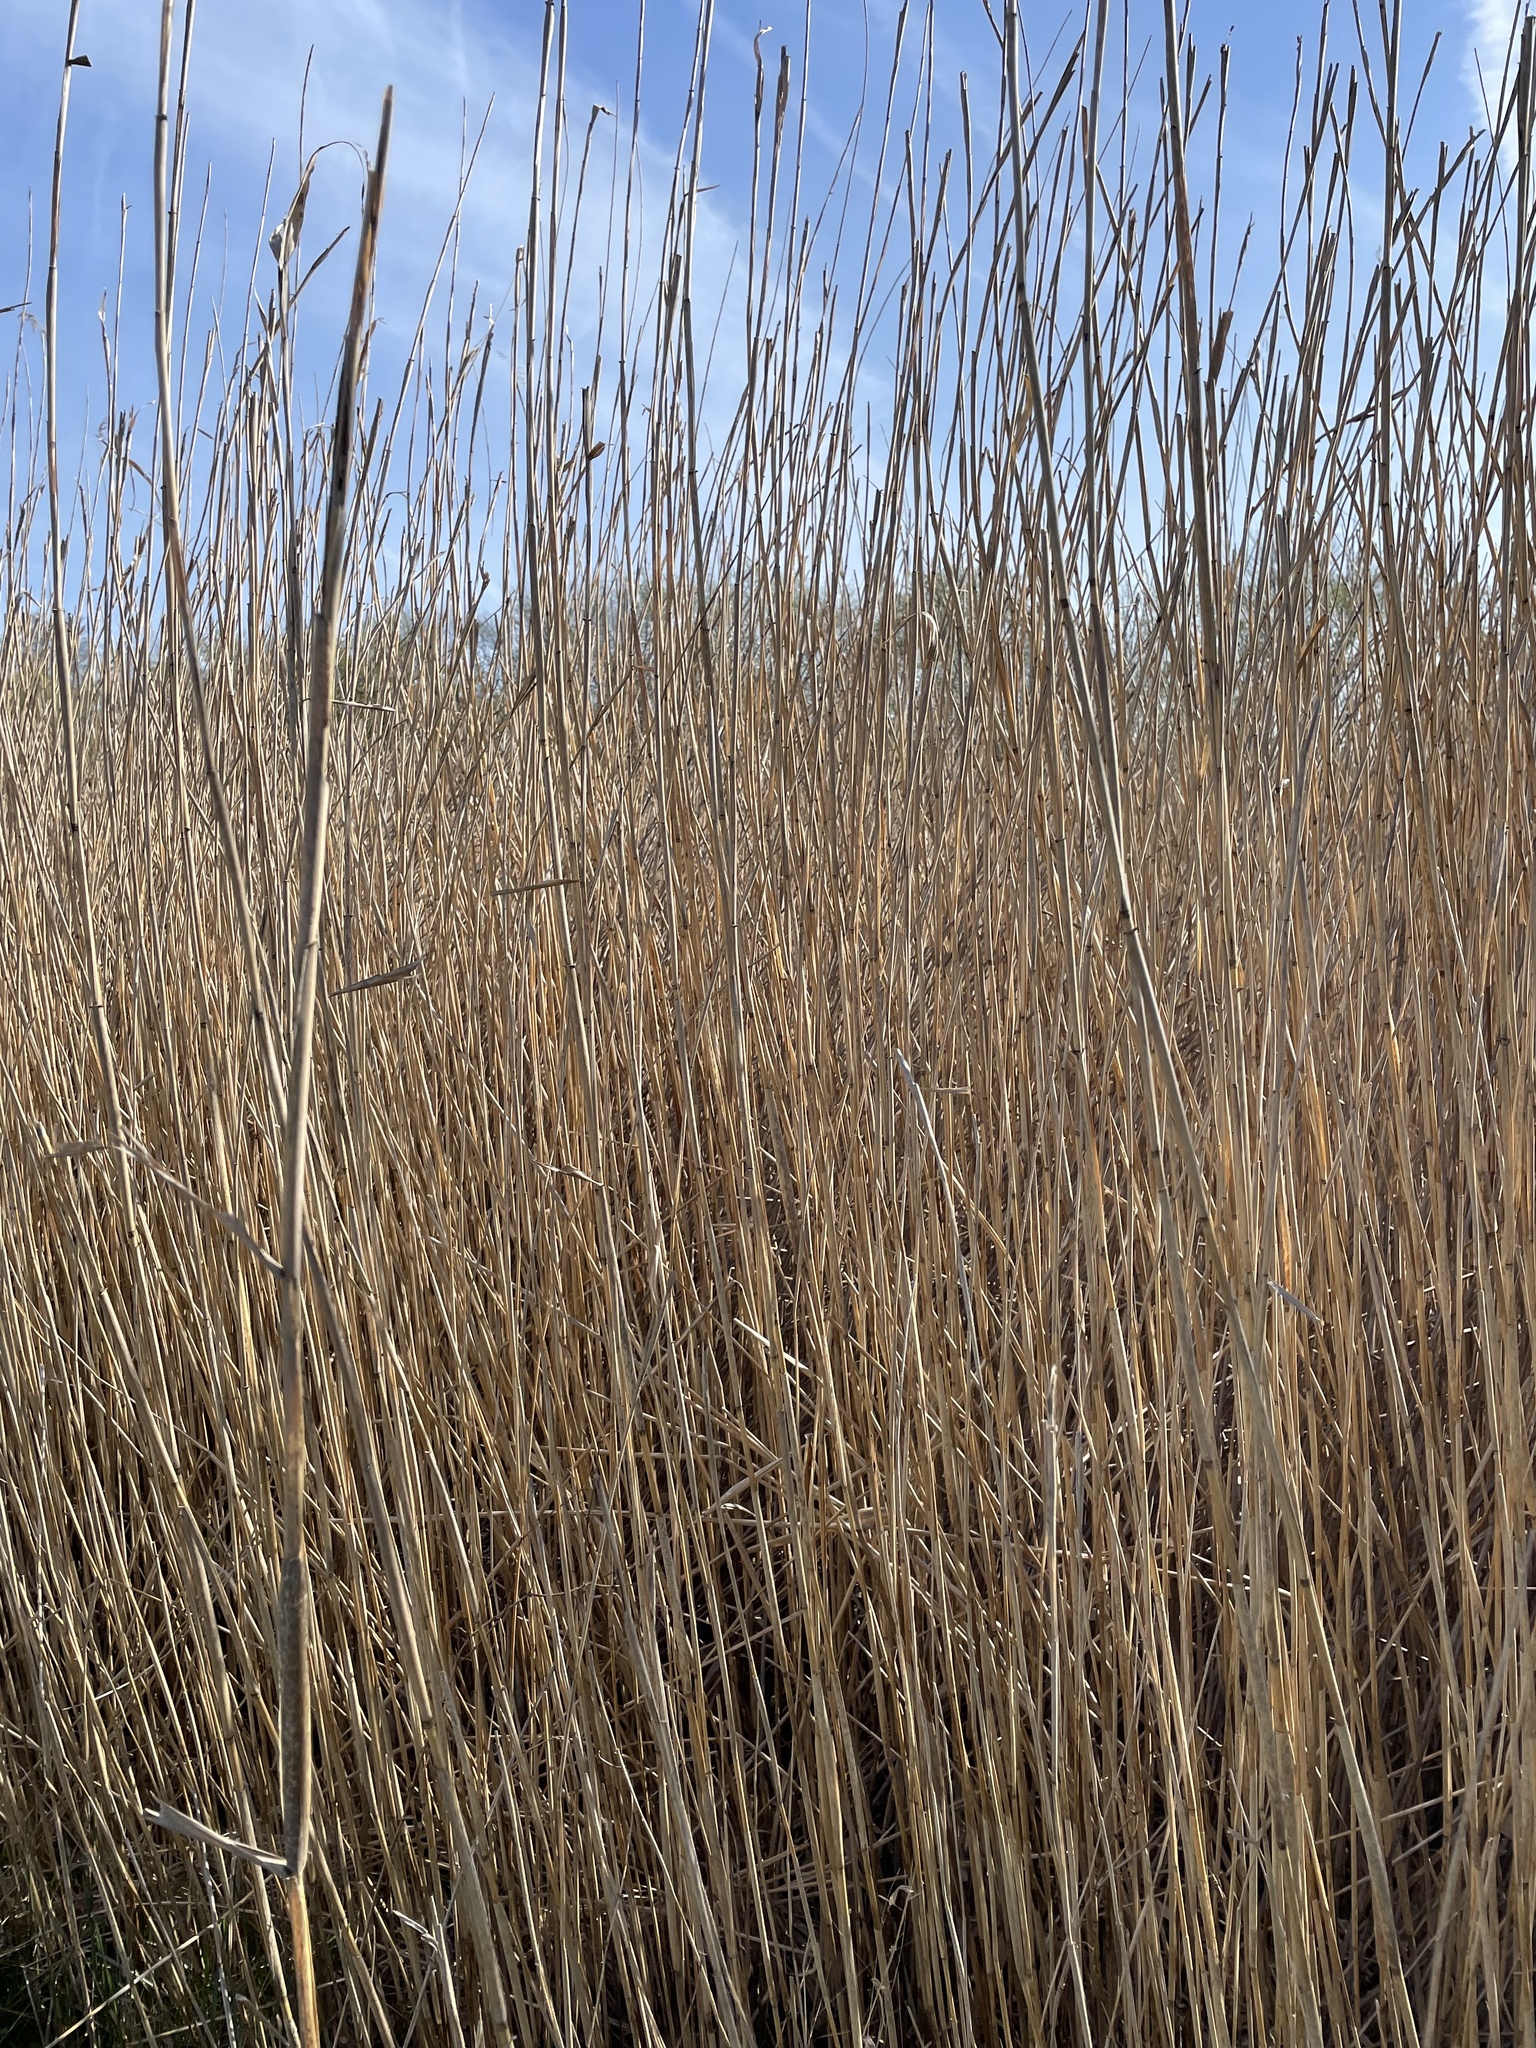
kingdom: Plantae
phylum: Tracheophyta
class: Liliopsida
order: Poales
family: Poaceae
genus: Phragmites
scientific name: Phragmites australis
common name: Common reed
